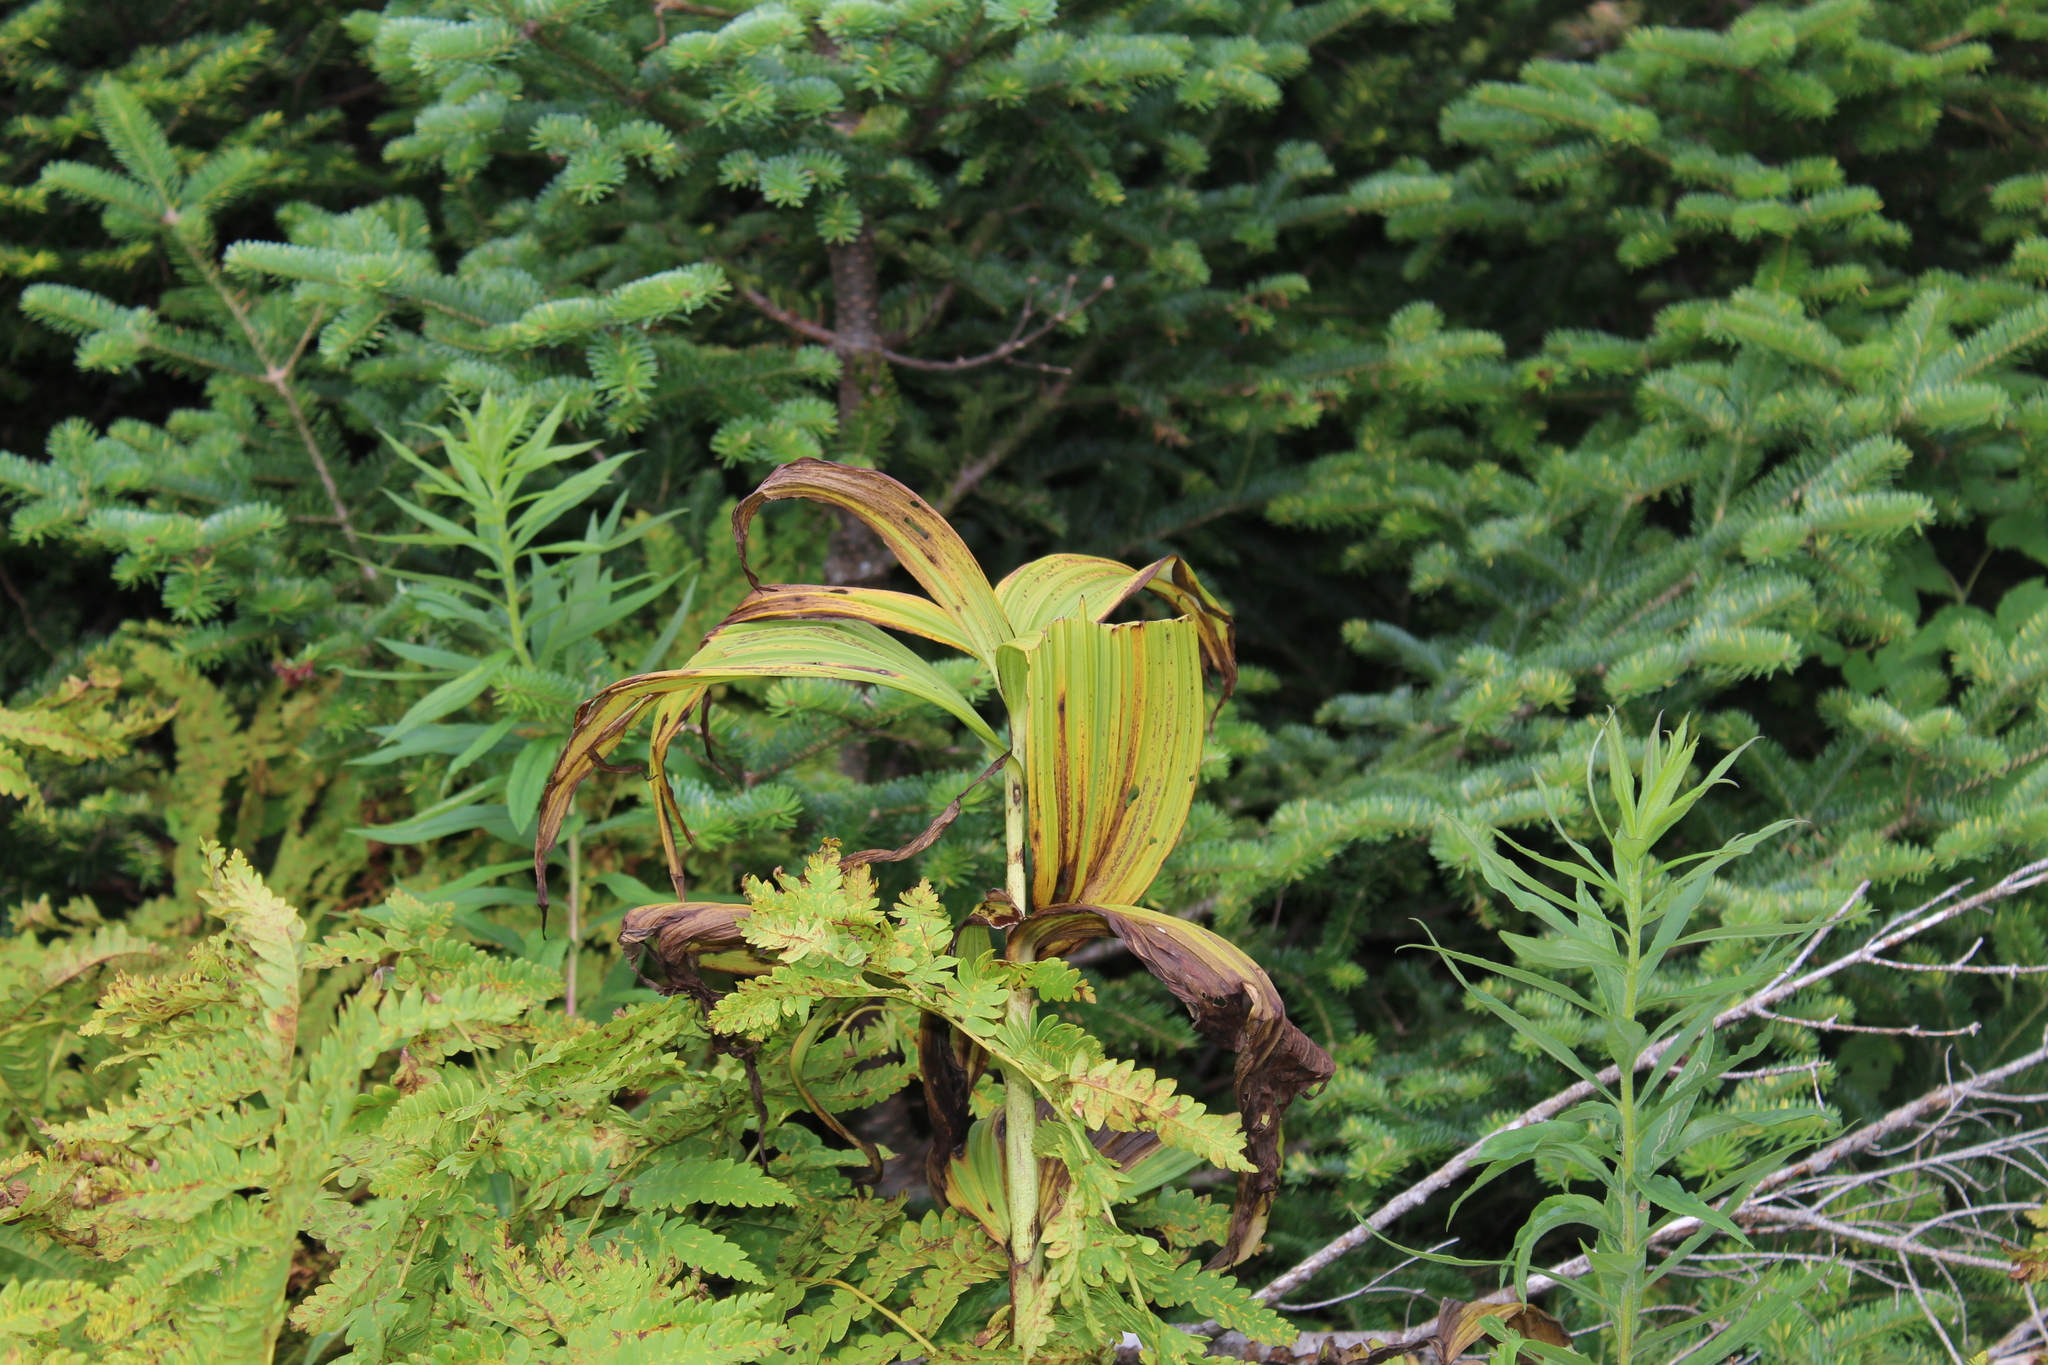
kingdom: Plantae
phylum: Tracheophyta
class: Liliopsida
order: Liliales
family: Melanthiaceae
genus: Veratrum
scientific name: Veratrum viride
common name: American false hellebore
